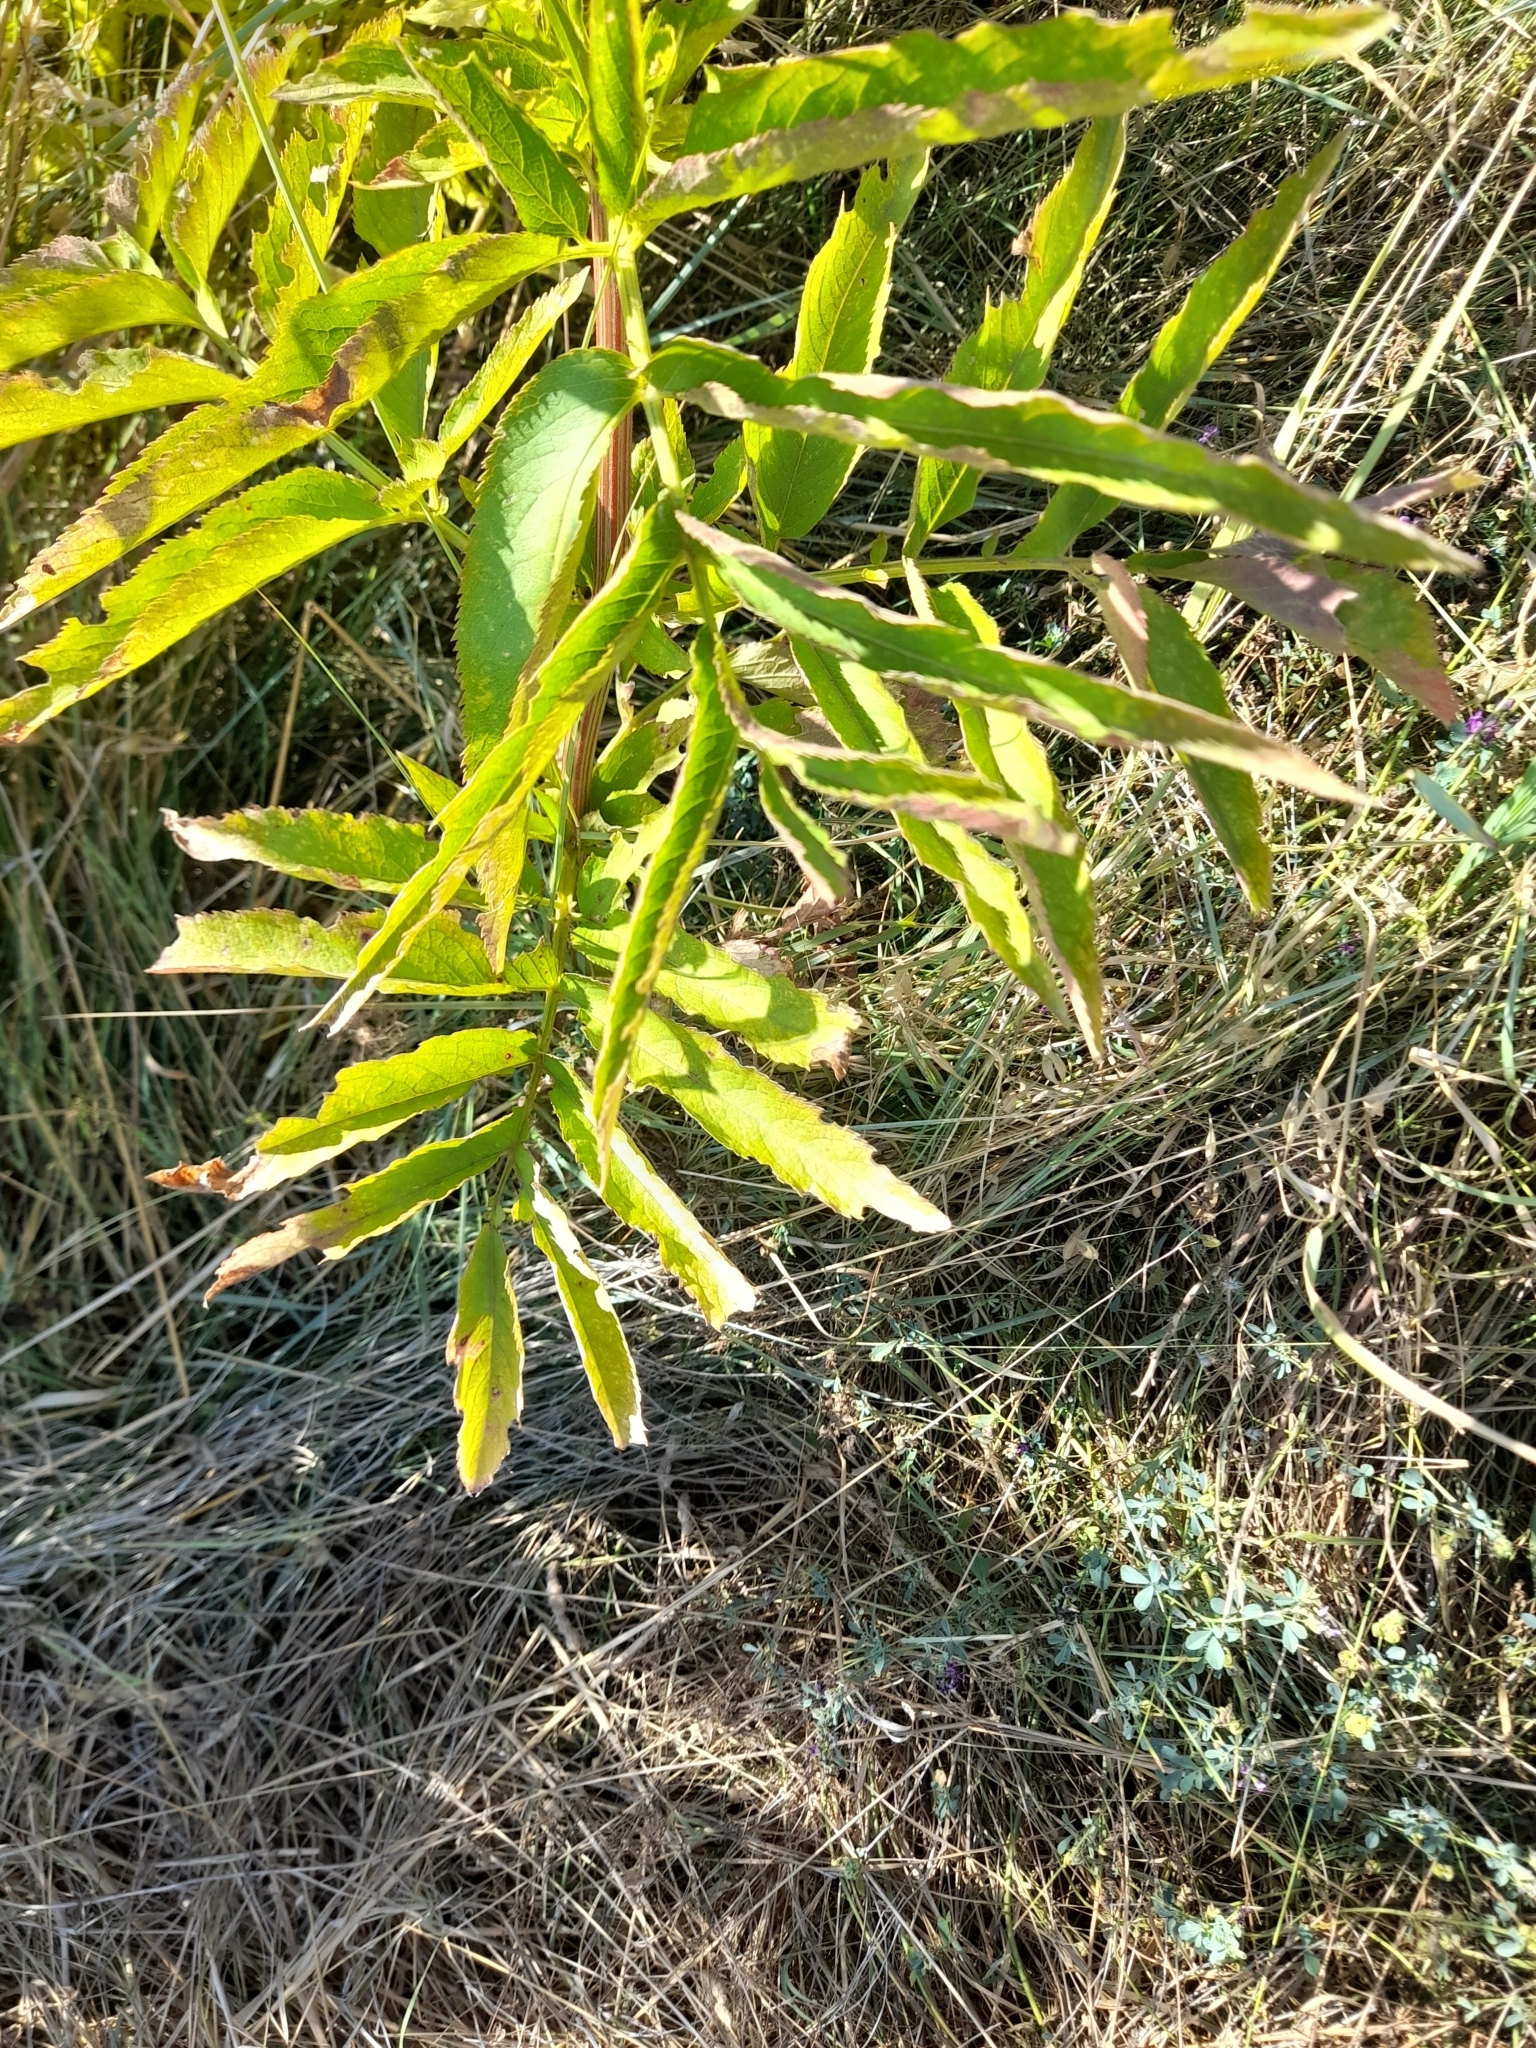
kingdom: Plantae
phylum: Tracheophyta
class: Magnoliopsida
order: Dipsacales
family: Viburnaceae
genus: Sambucus
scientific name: Sambucus ebulus
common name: Dwarf elder
